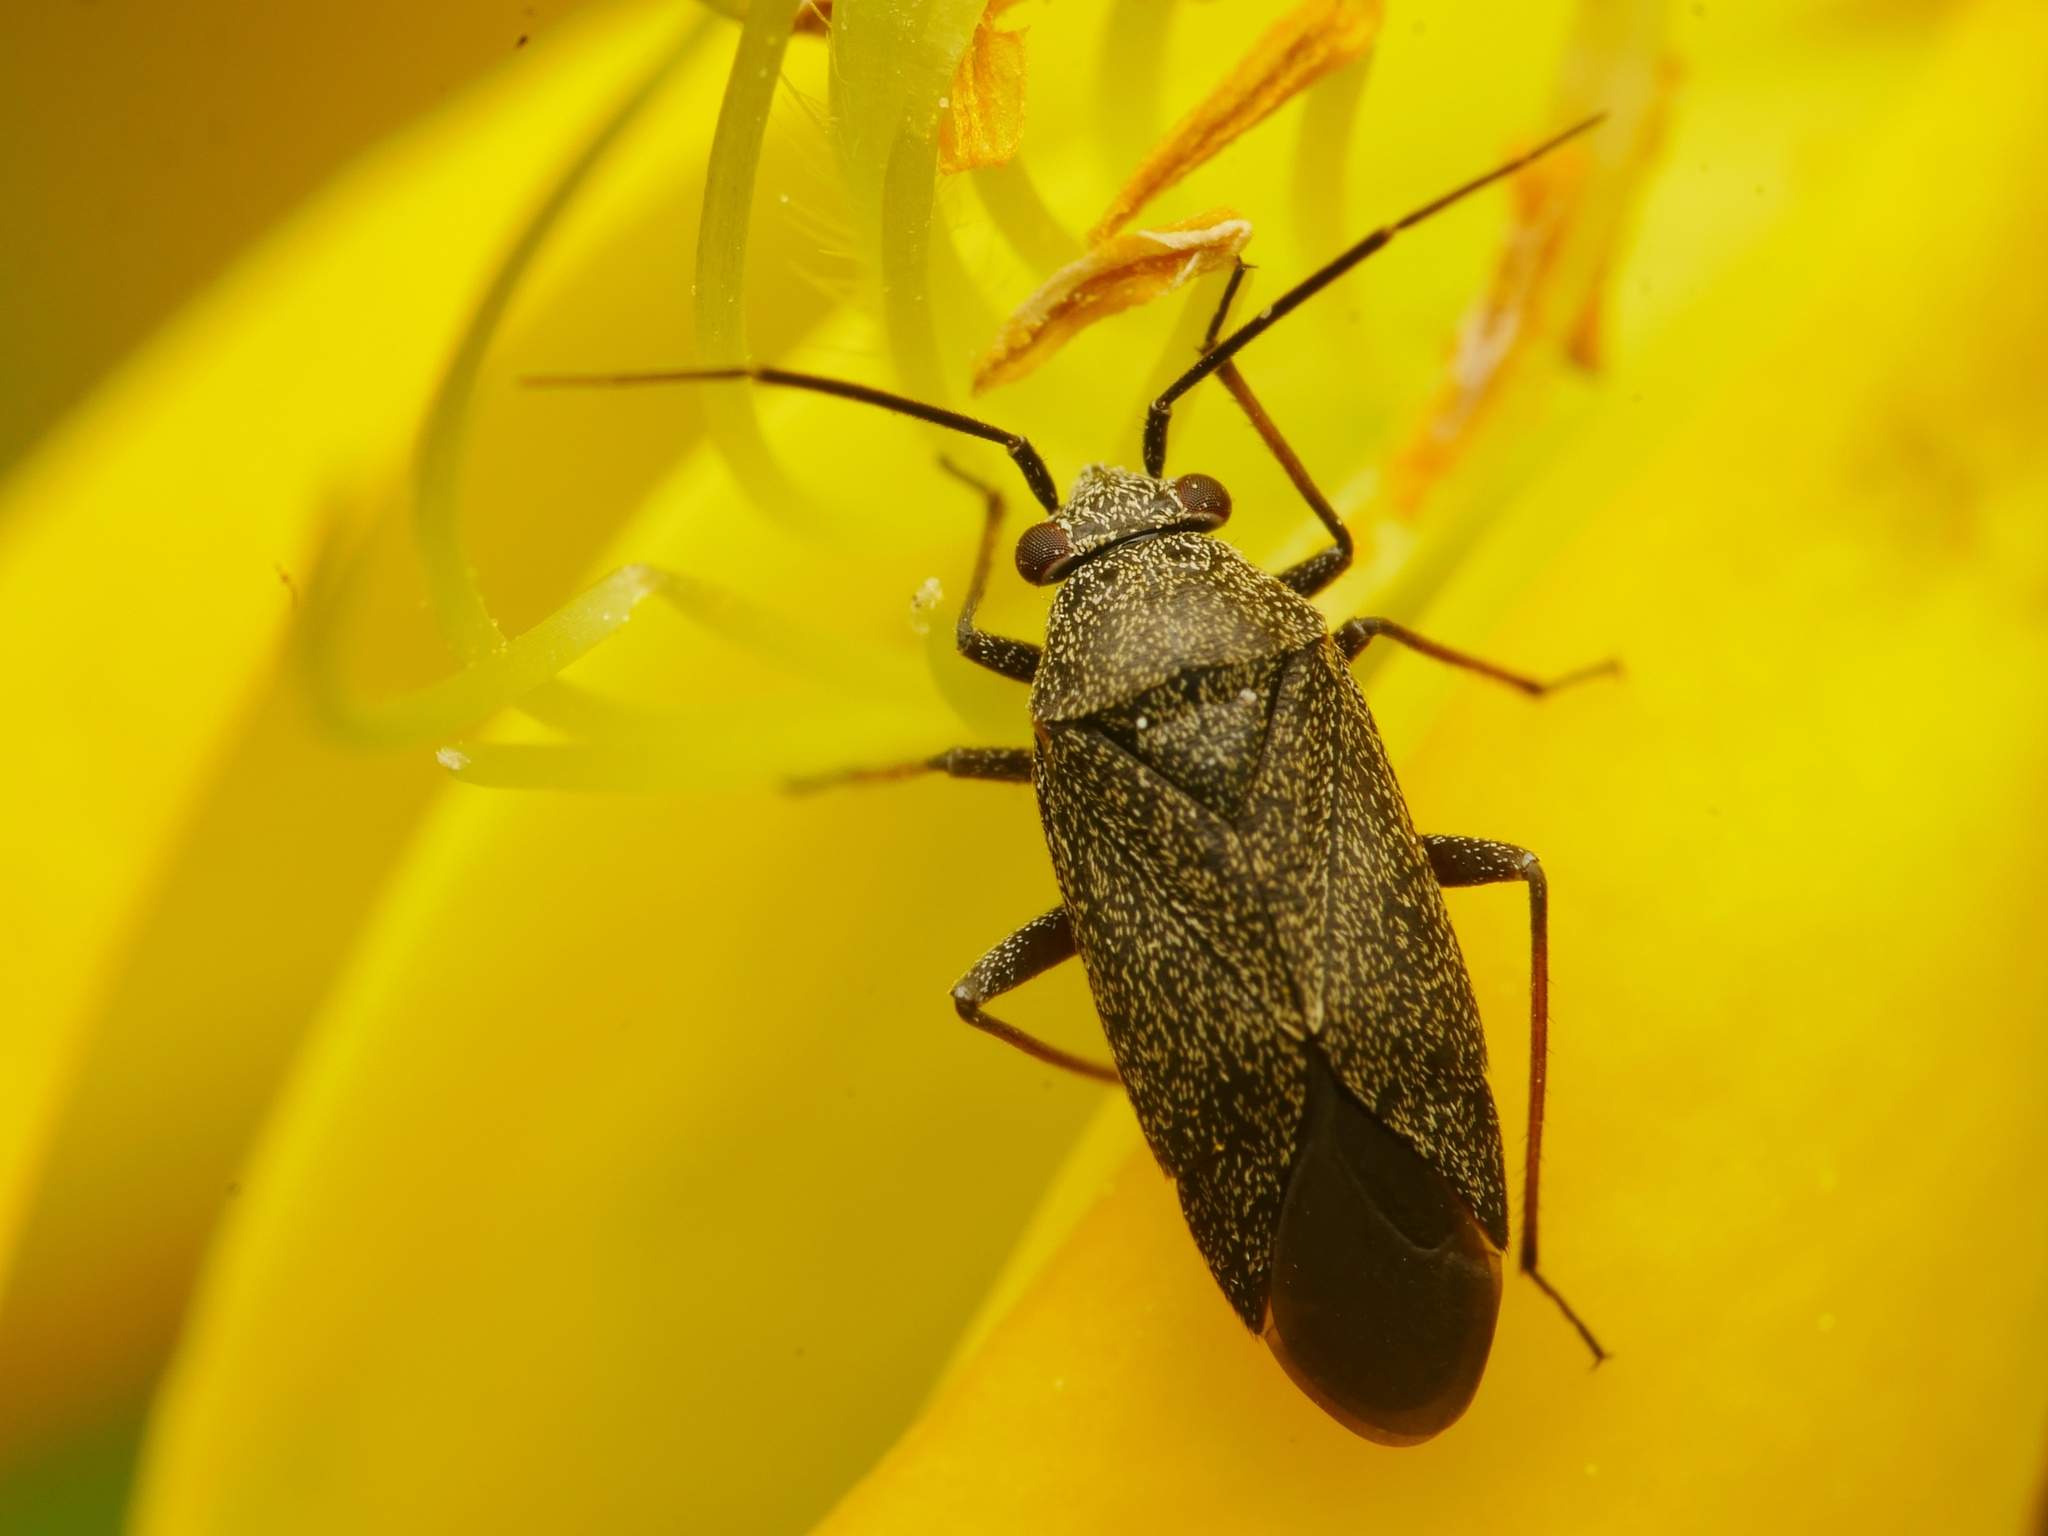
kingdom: Animalia
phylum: Arthropoda
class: Insecta
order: Hemiptera
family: Miridae
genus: Heterocordylus
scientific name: Heterocordylus tibialis
